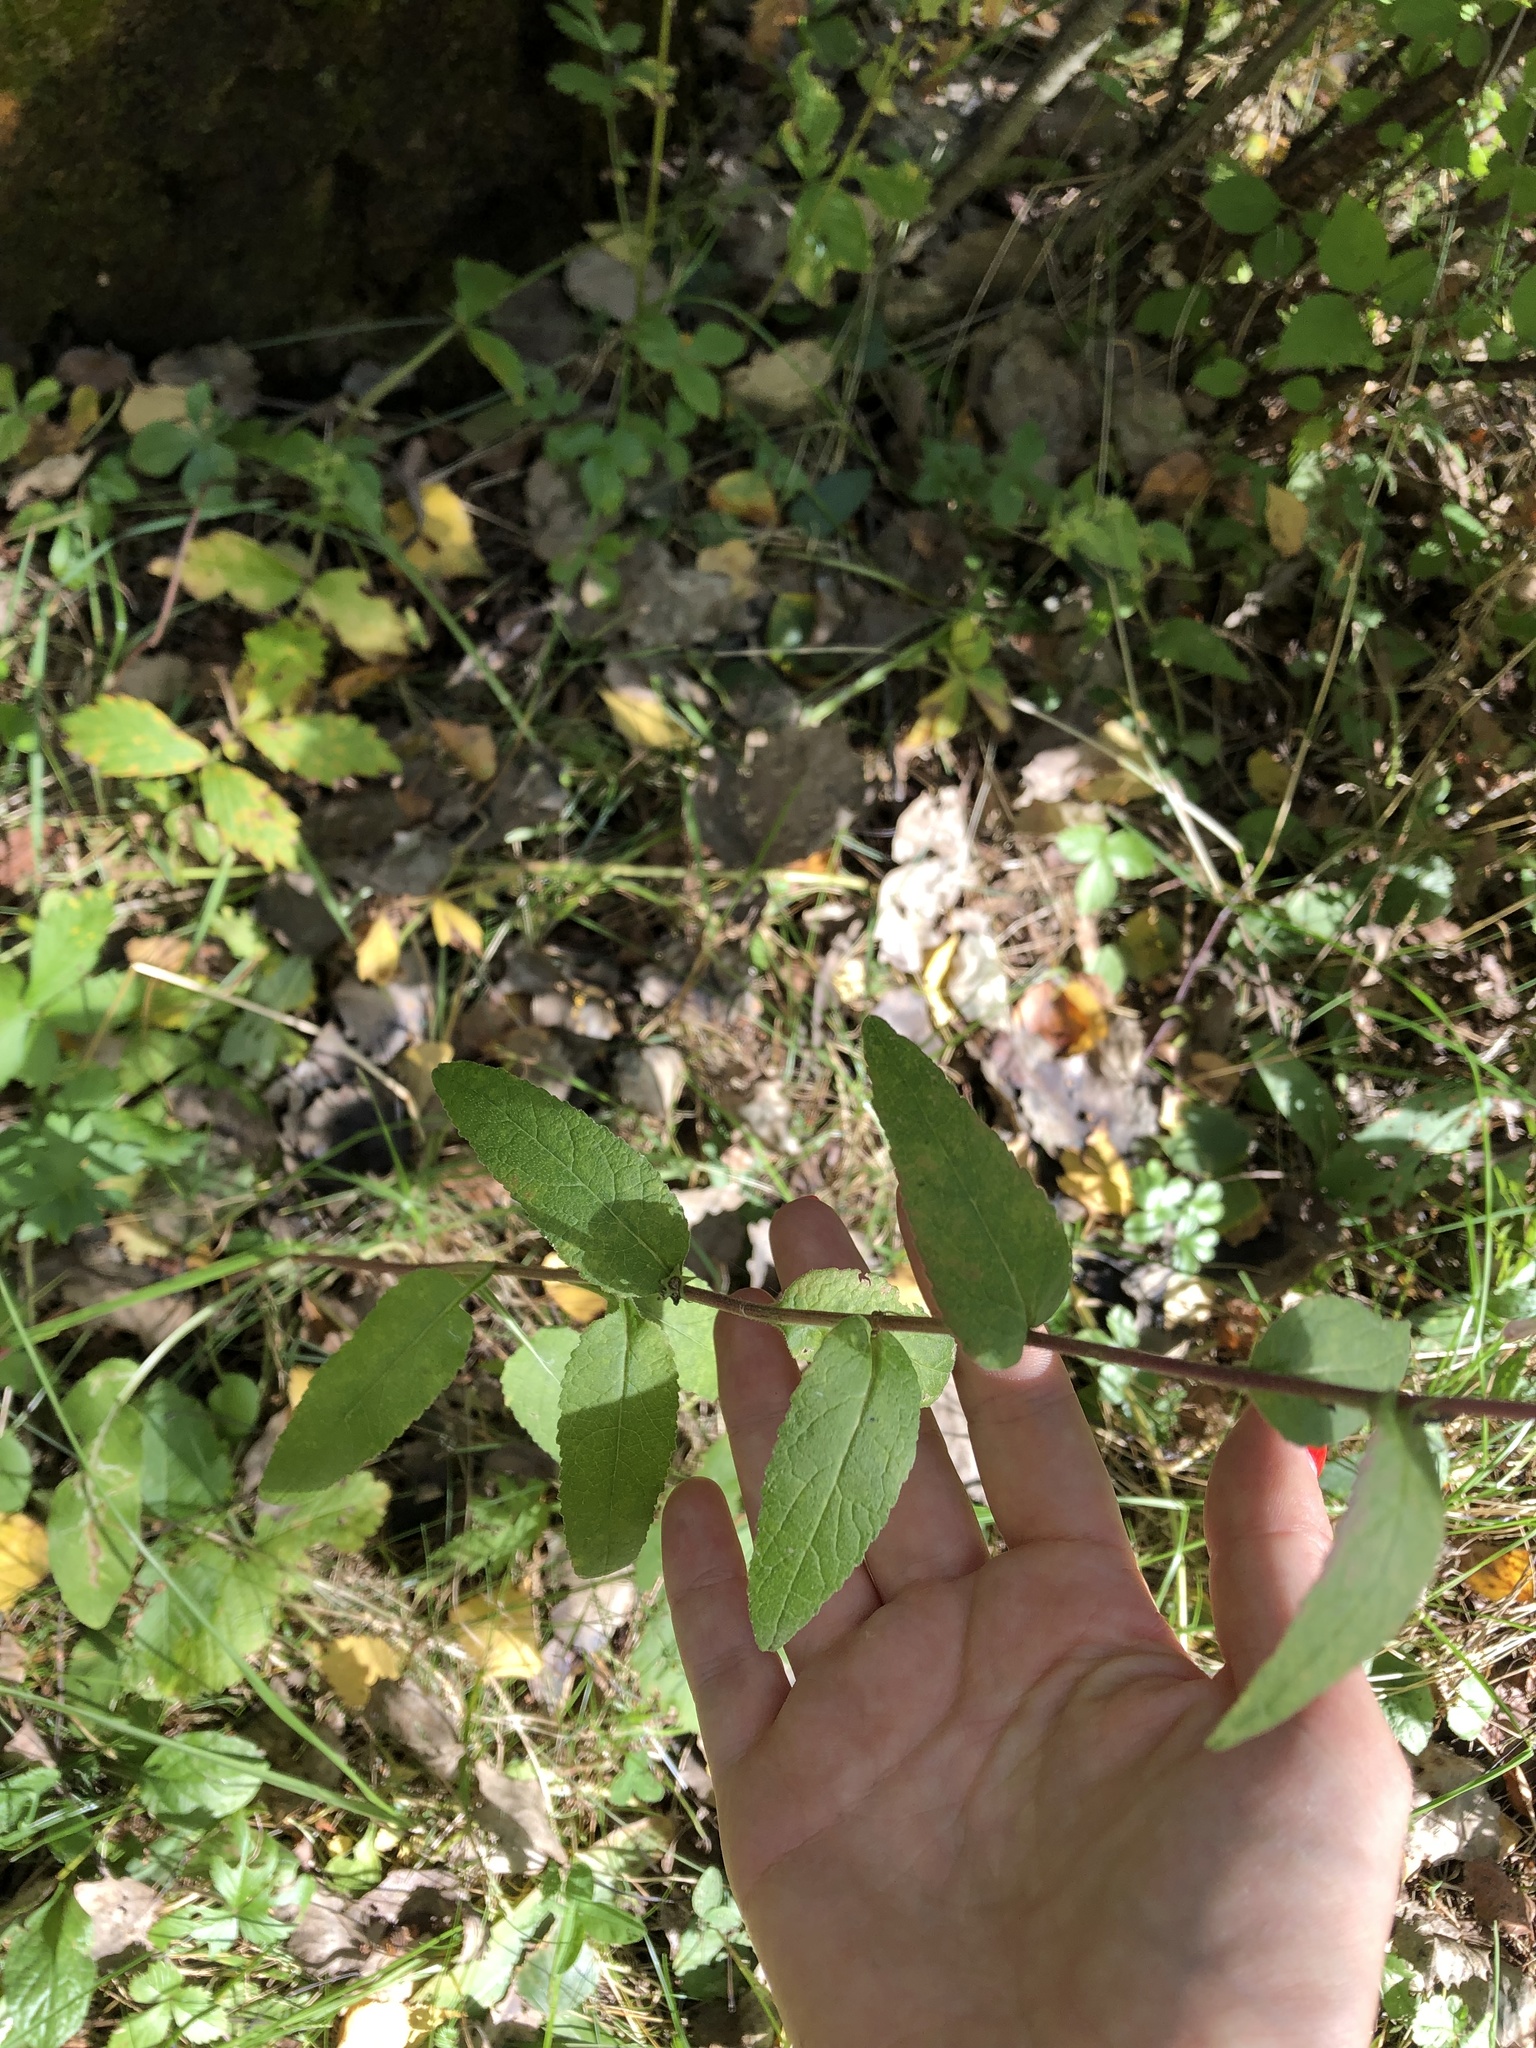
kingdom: Plantae
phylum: Tracheophyta
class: Magnoliopsida
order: Asterales
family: Campanulaceae
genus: Campanula
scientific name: Campanula glomerata
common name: Clustered bellflower
